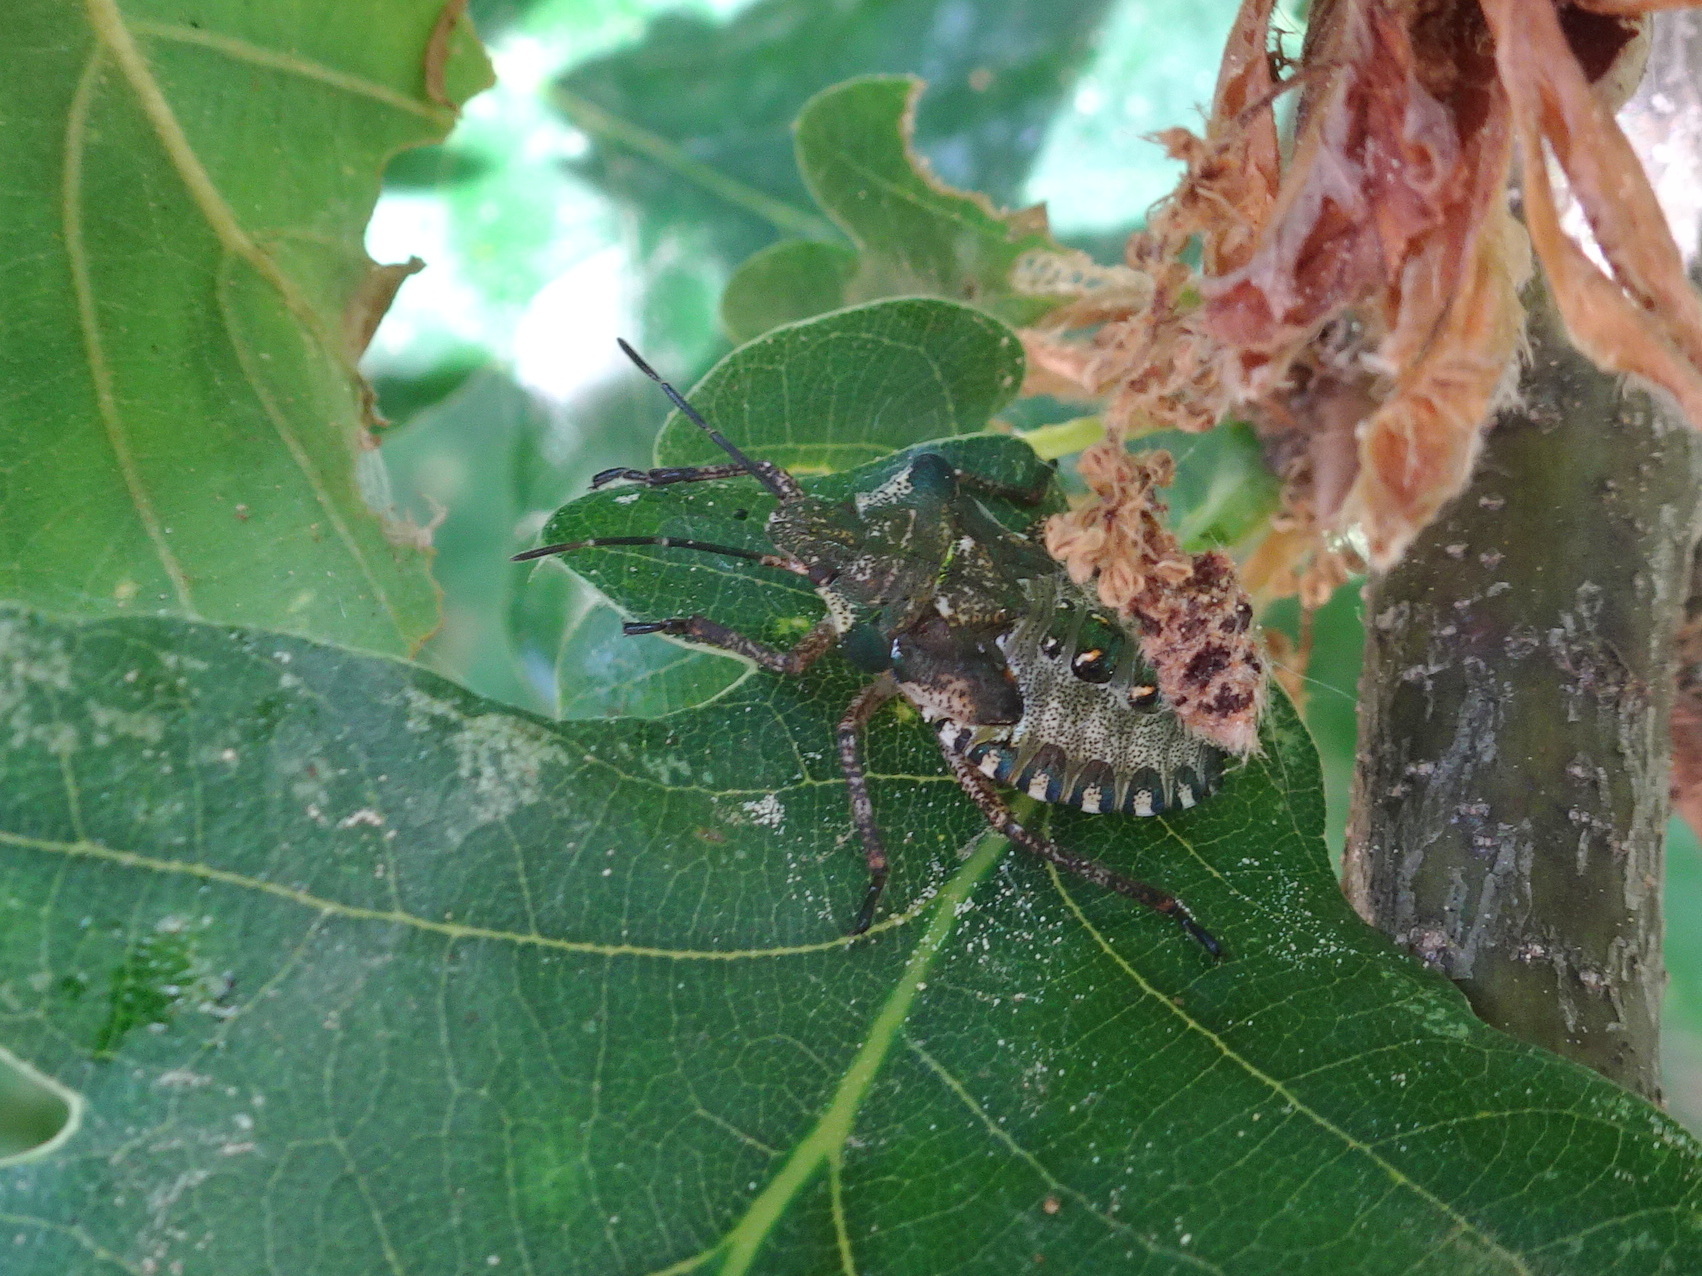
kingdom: Animalia
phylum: Arthropoda
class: Insecta
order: Hemiptera
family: Pentatomidae
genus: Pentatoma
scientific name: Pentatoma rufipes
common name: Forest bug
